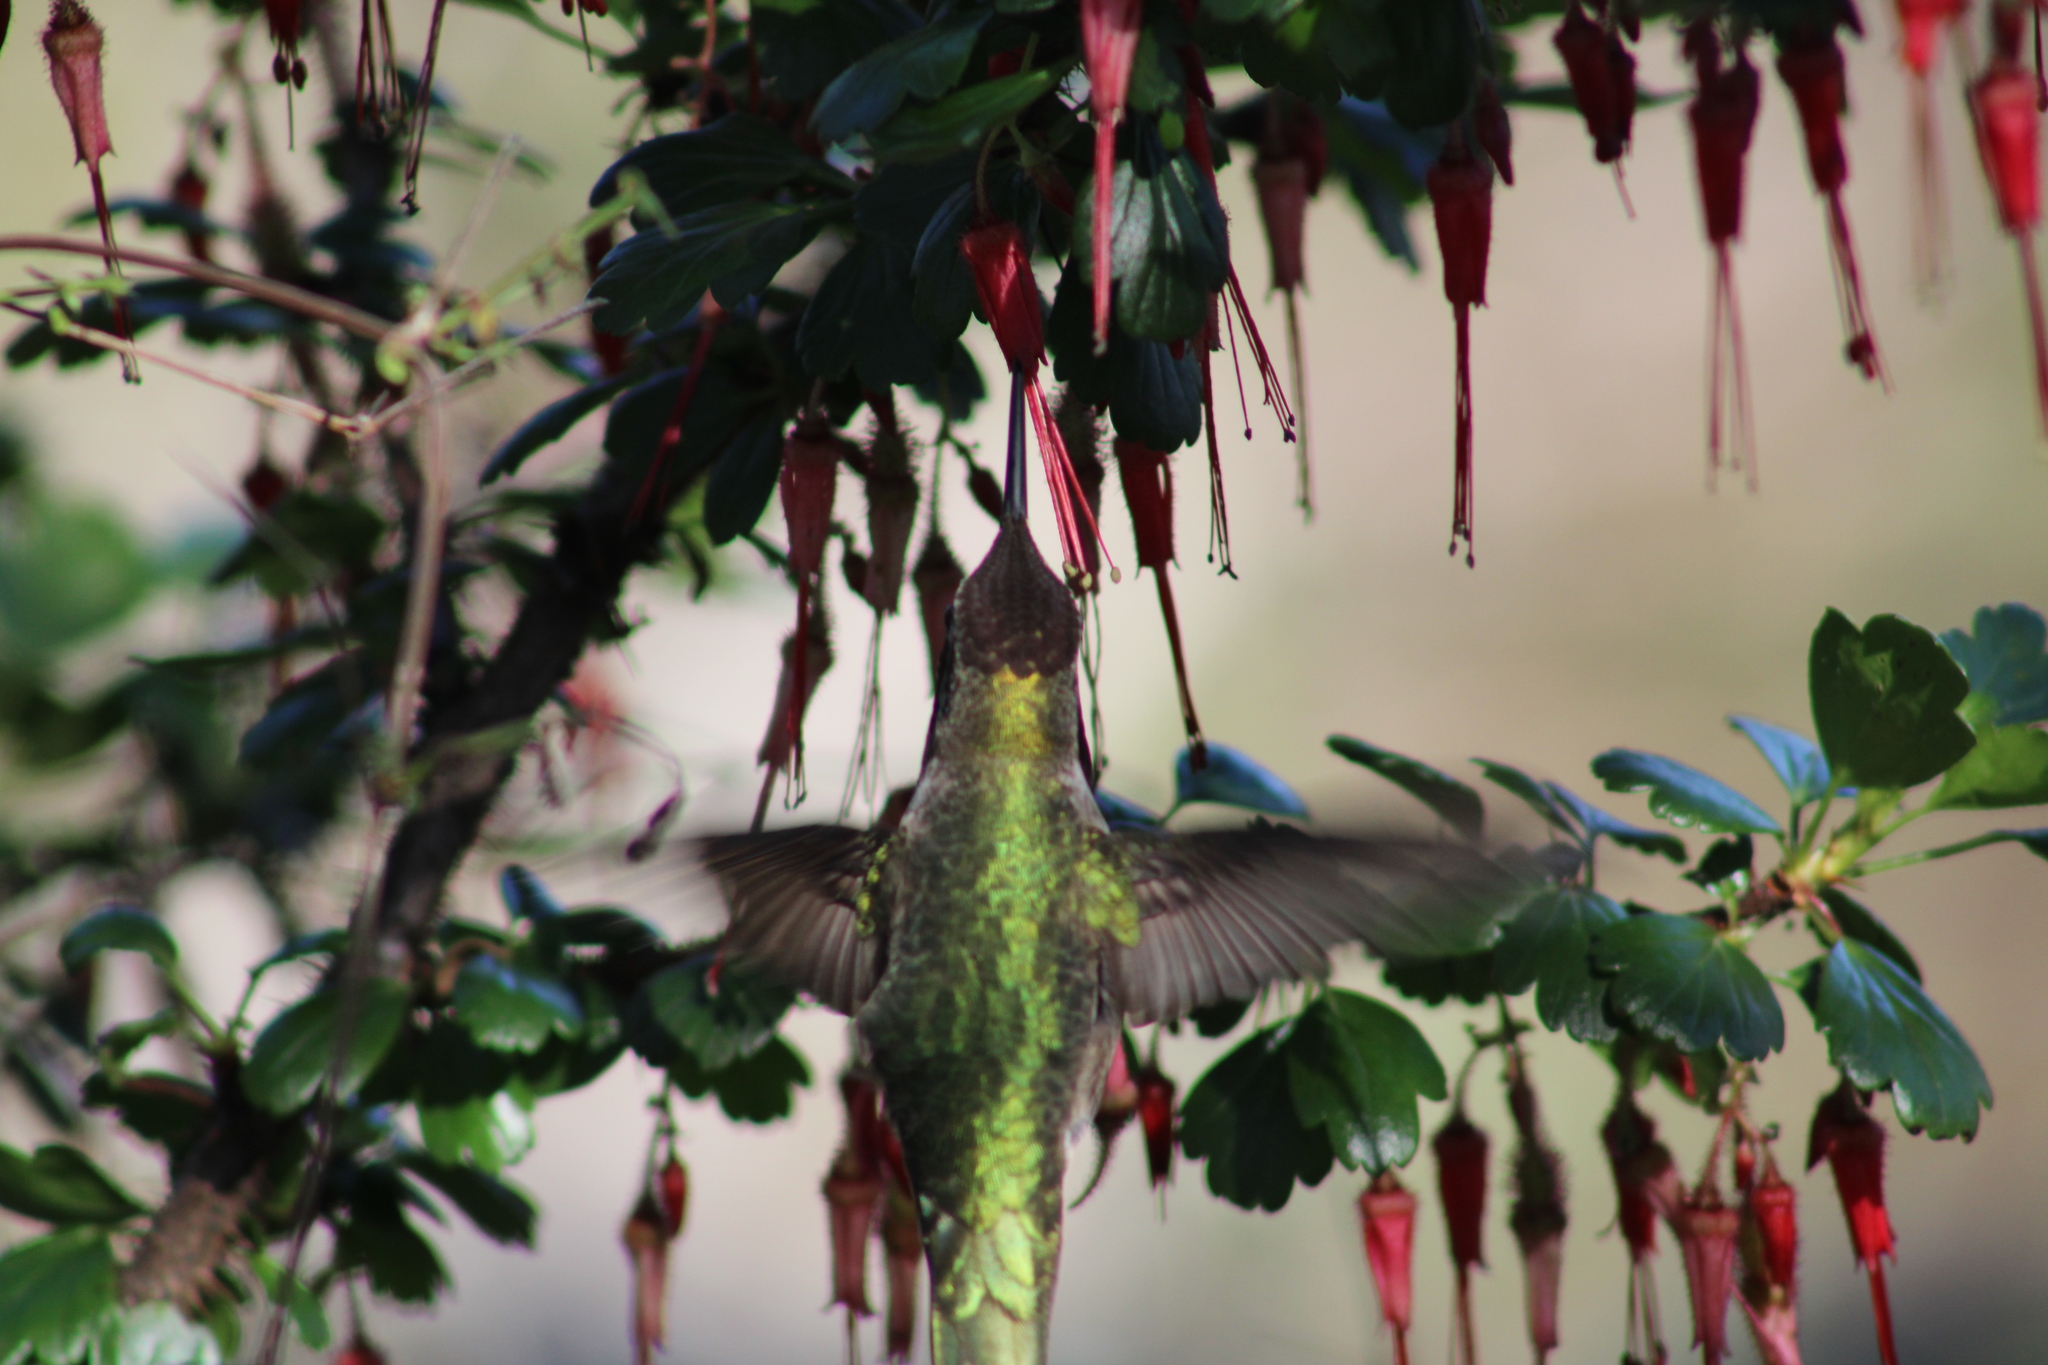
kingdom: Animalia
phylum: Chordata
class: Aves
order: Apodiformes
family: Trochilidae
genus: Calypte
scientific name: Calypte anna
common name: Anna's hummingbird
